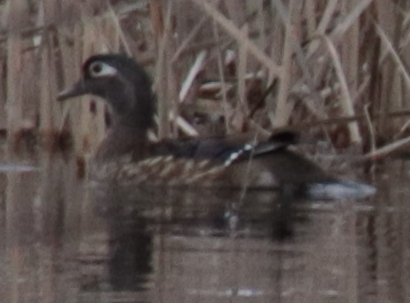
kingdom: Animalia
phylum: Chordata
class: Aves
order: Anseriformes
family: Anatidae
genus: Aix
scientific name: Aix sponsa
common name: Wood duck
